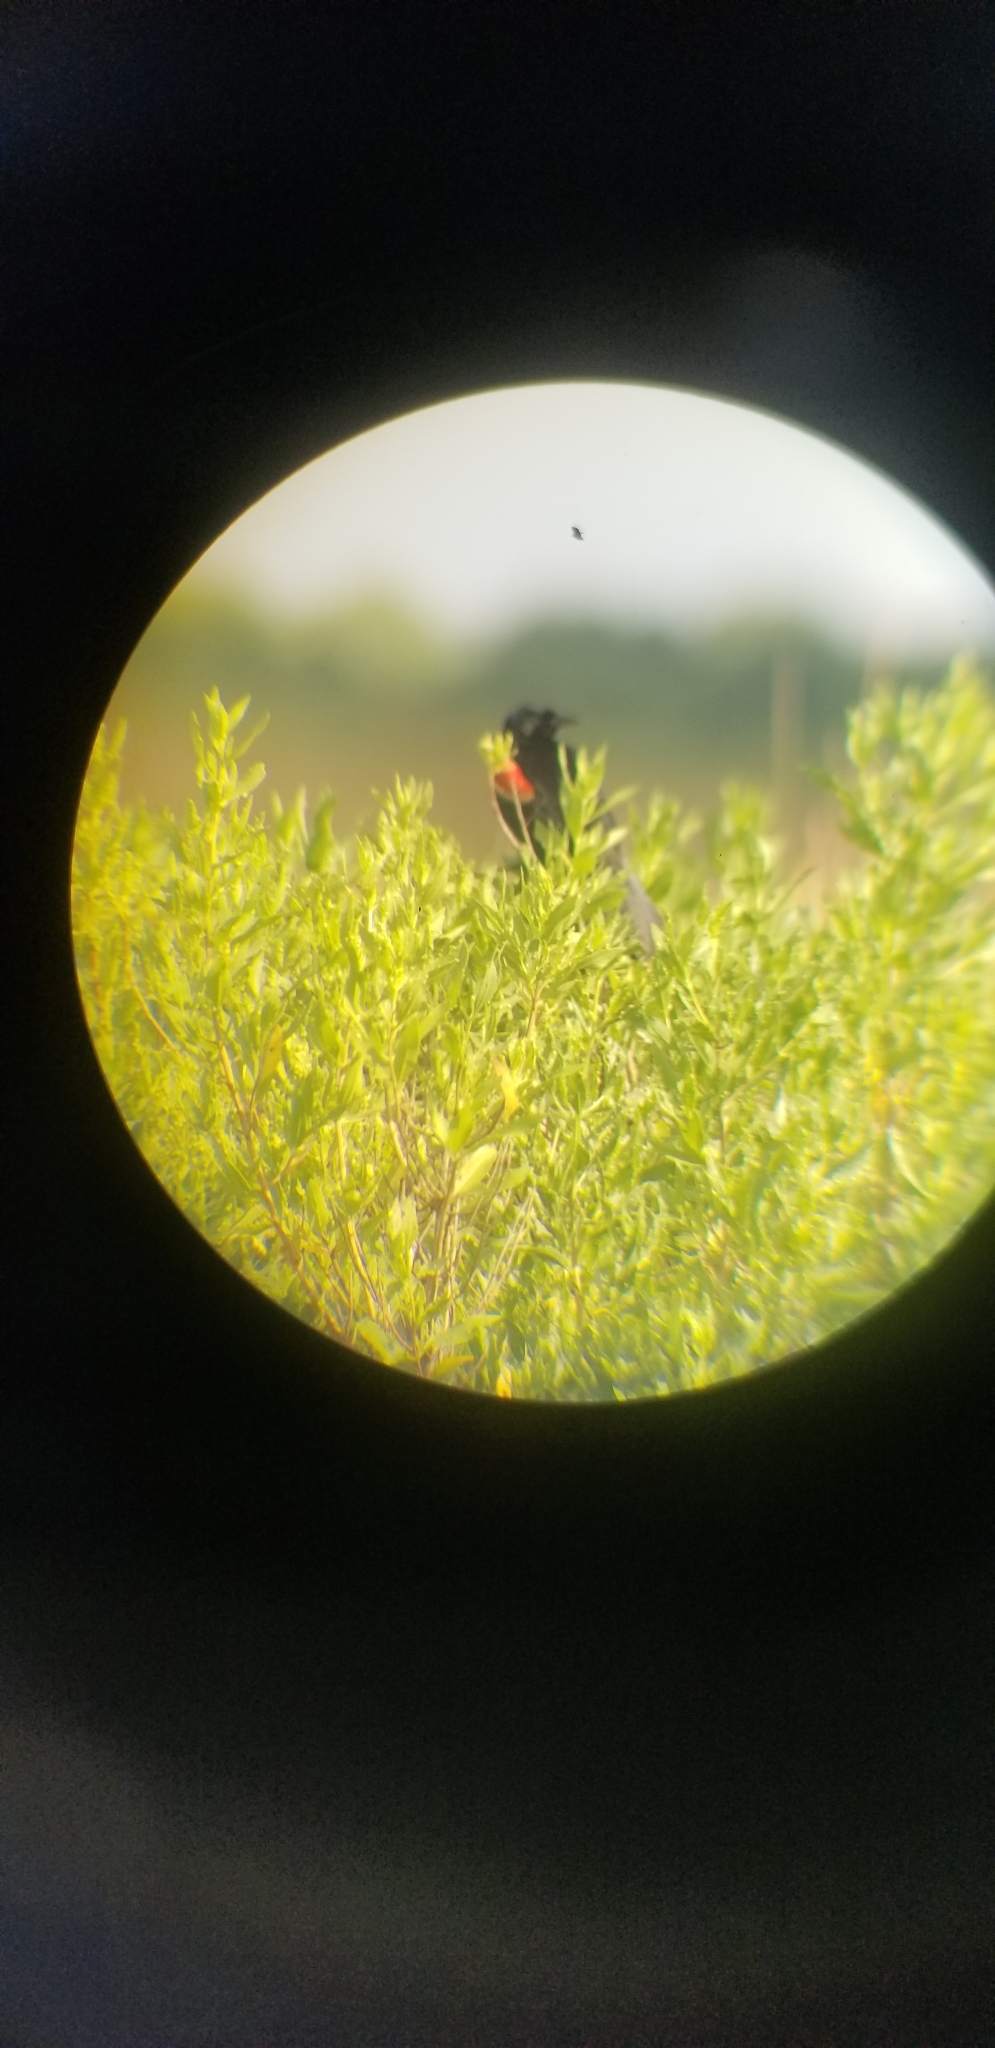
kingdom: Animalia
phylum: Chordata
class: Aves
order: Passeriformes
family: Icteridae
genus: Agelaius
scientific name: Agelaius phoeniceus
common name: Red-winged blackbird
